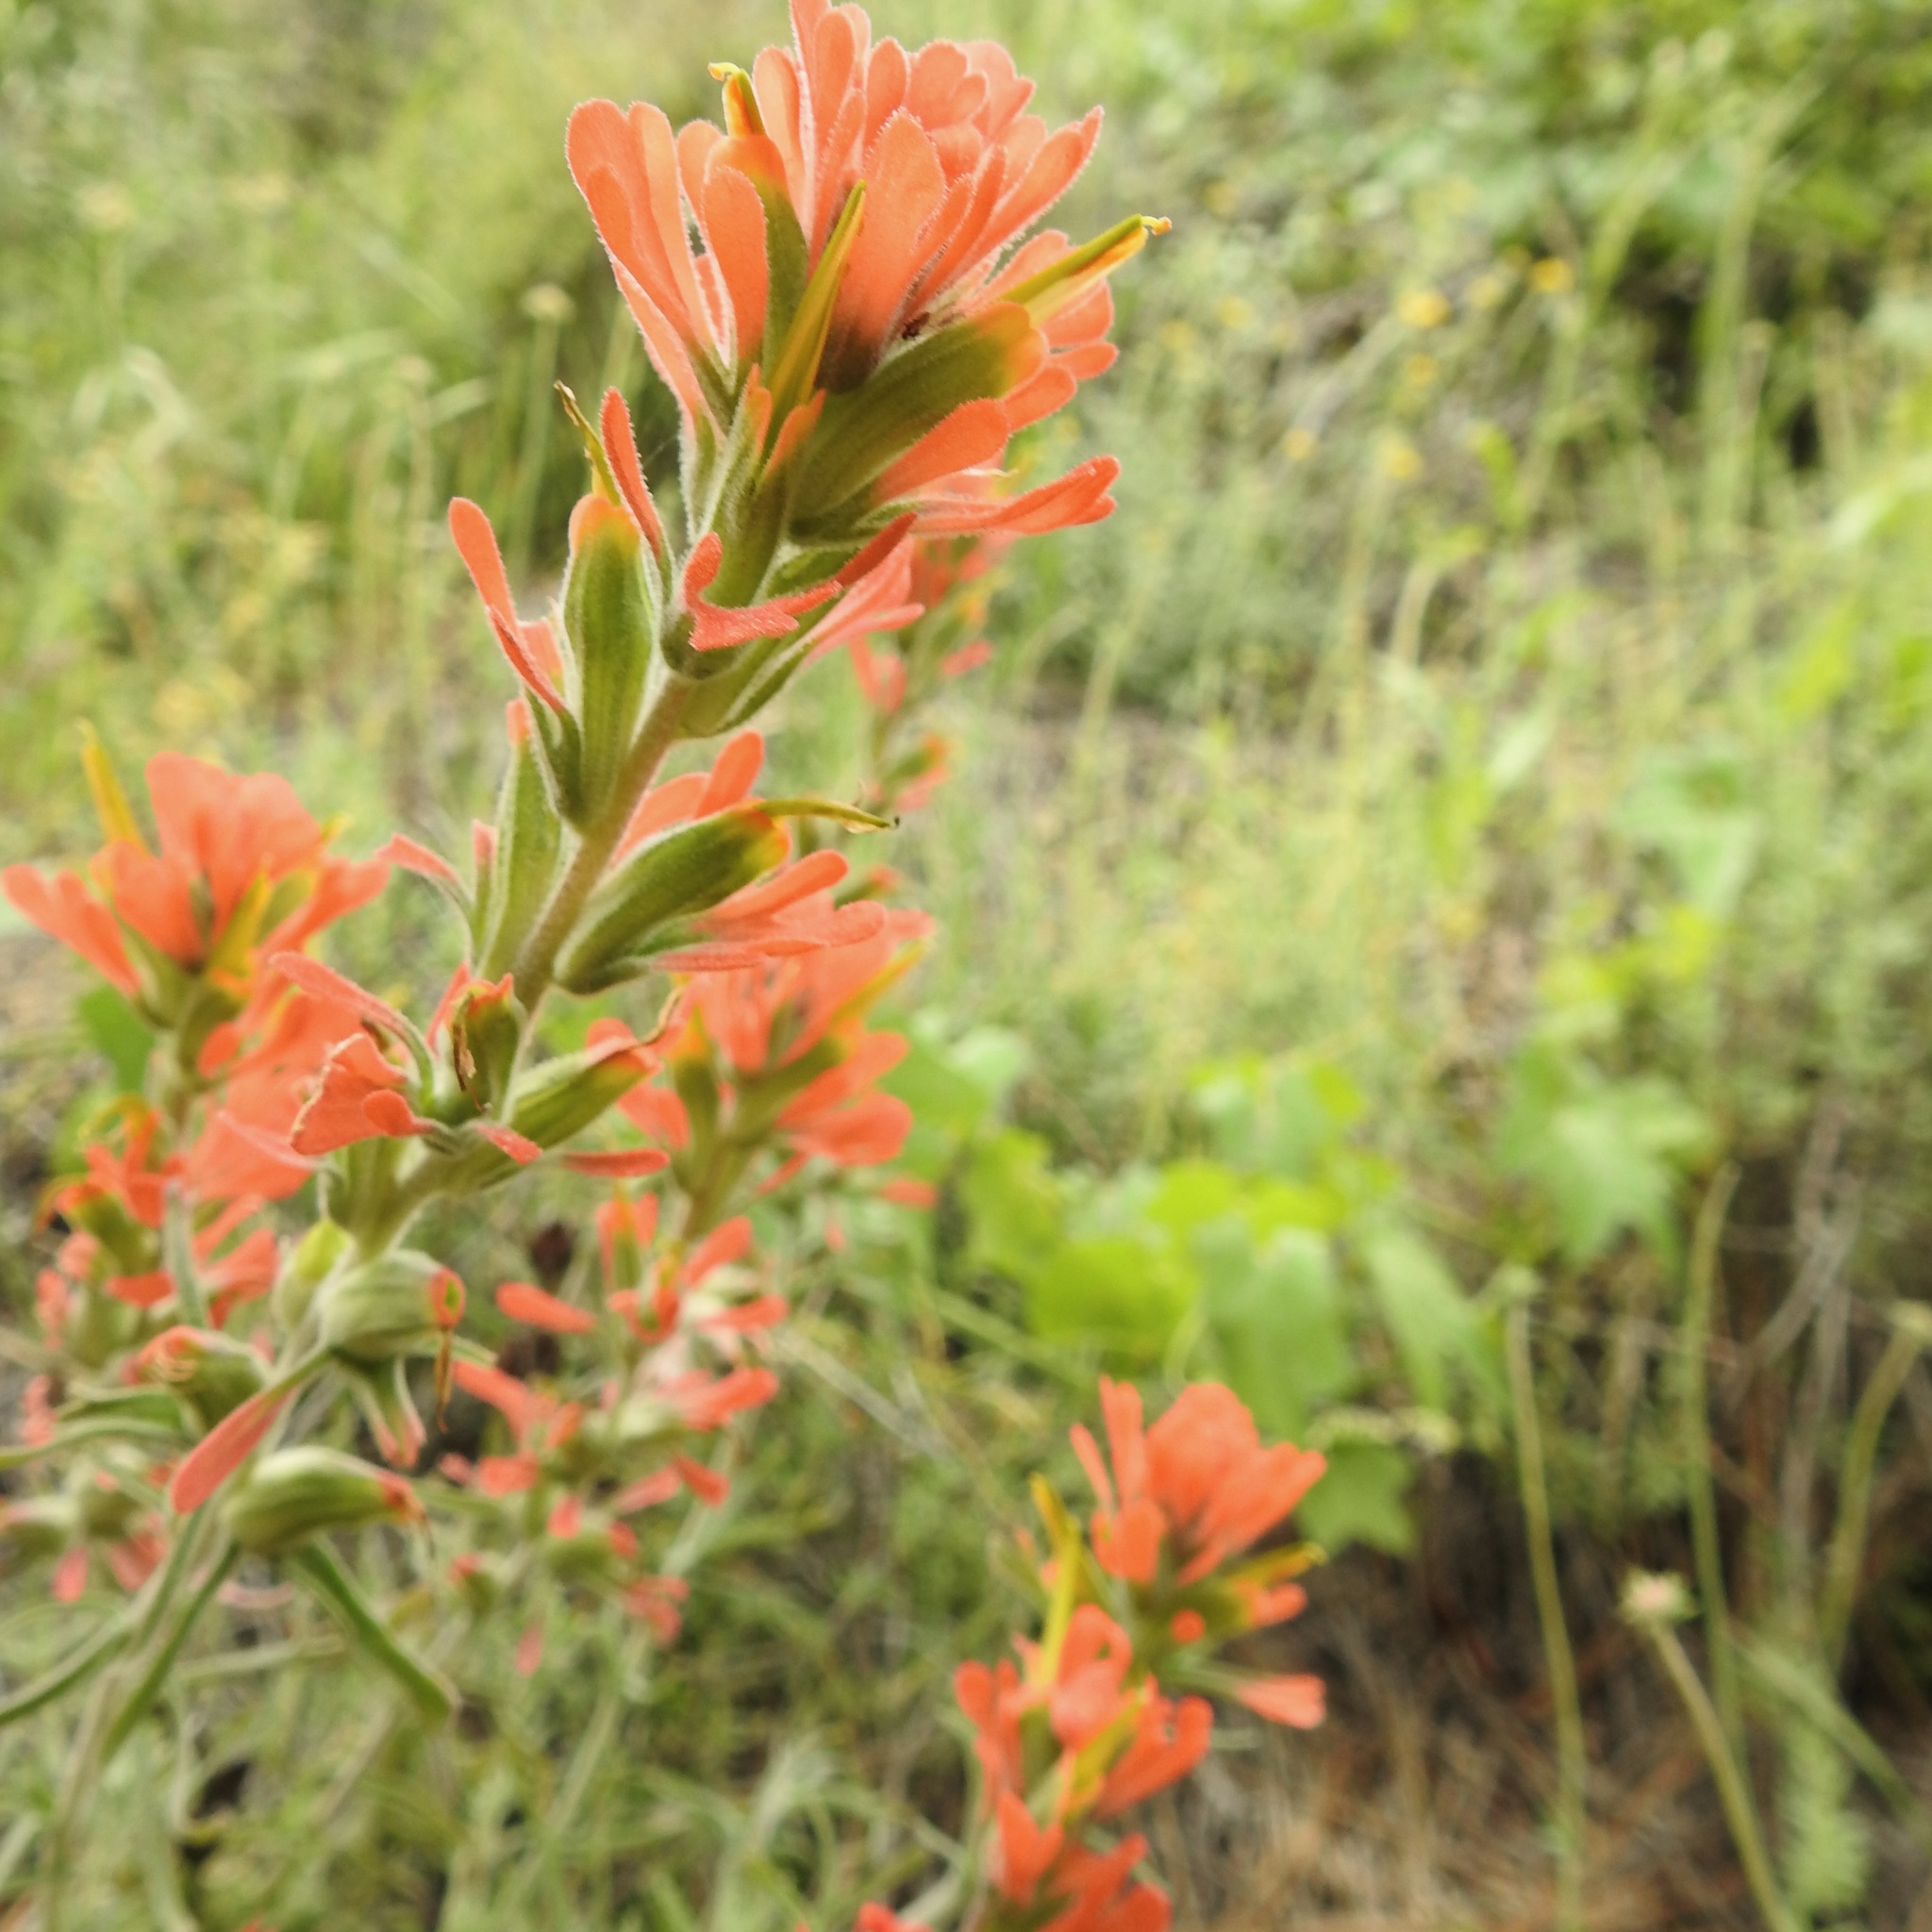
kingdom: Plantae
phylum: Tracheophyta
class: Magnoliopsida
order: Lamiales
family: Orobanchaceae
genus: Castilleja
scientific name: Castilleja foliolosa
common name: Woolly indian paintbrush
